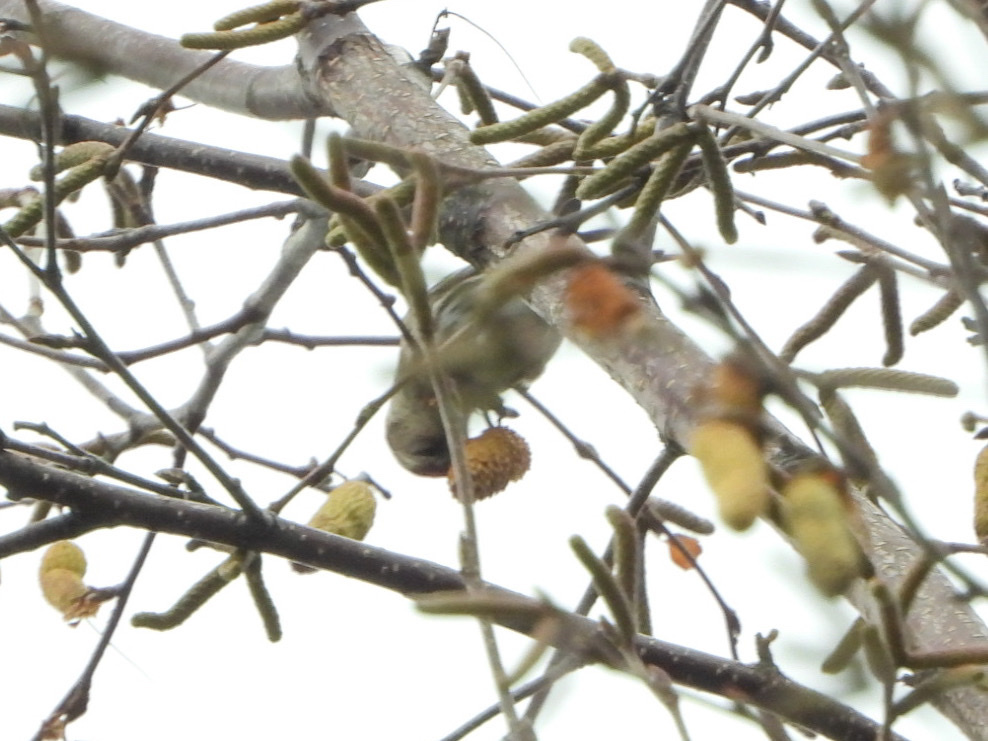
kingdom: Animalia
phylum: Chordata
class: Aves
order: Passeriformes
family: Fringillidae
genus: Acanthis
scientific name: Acanthis flammea
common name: Common redpoll
